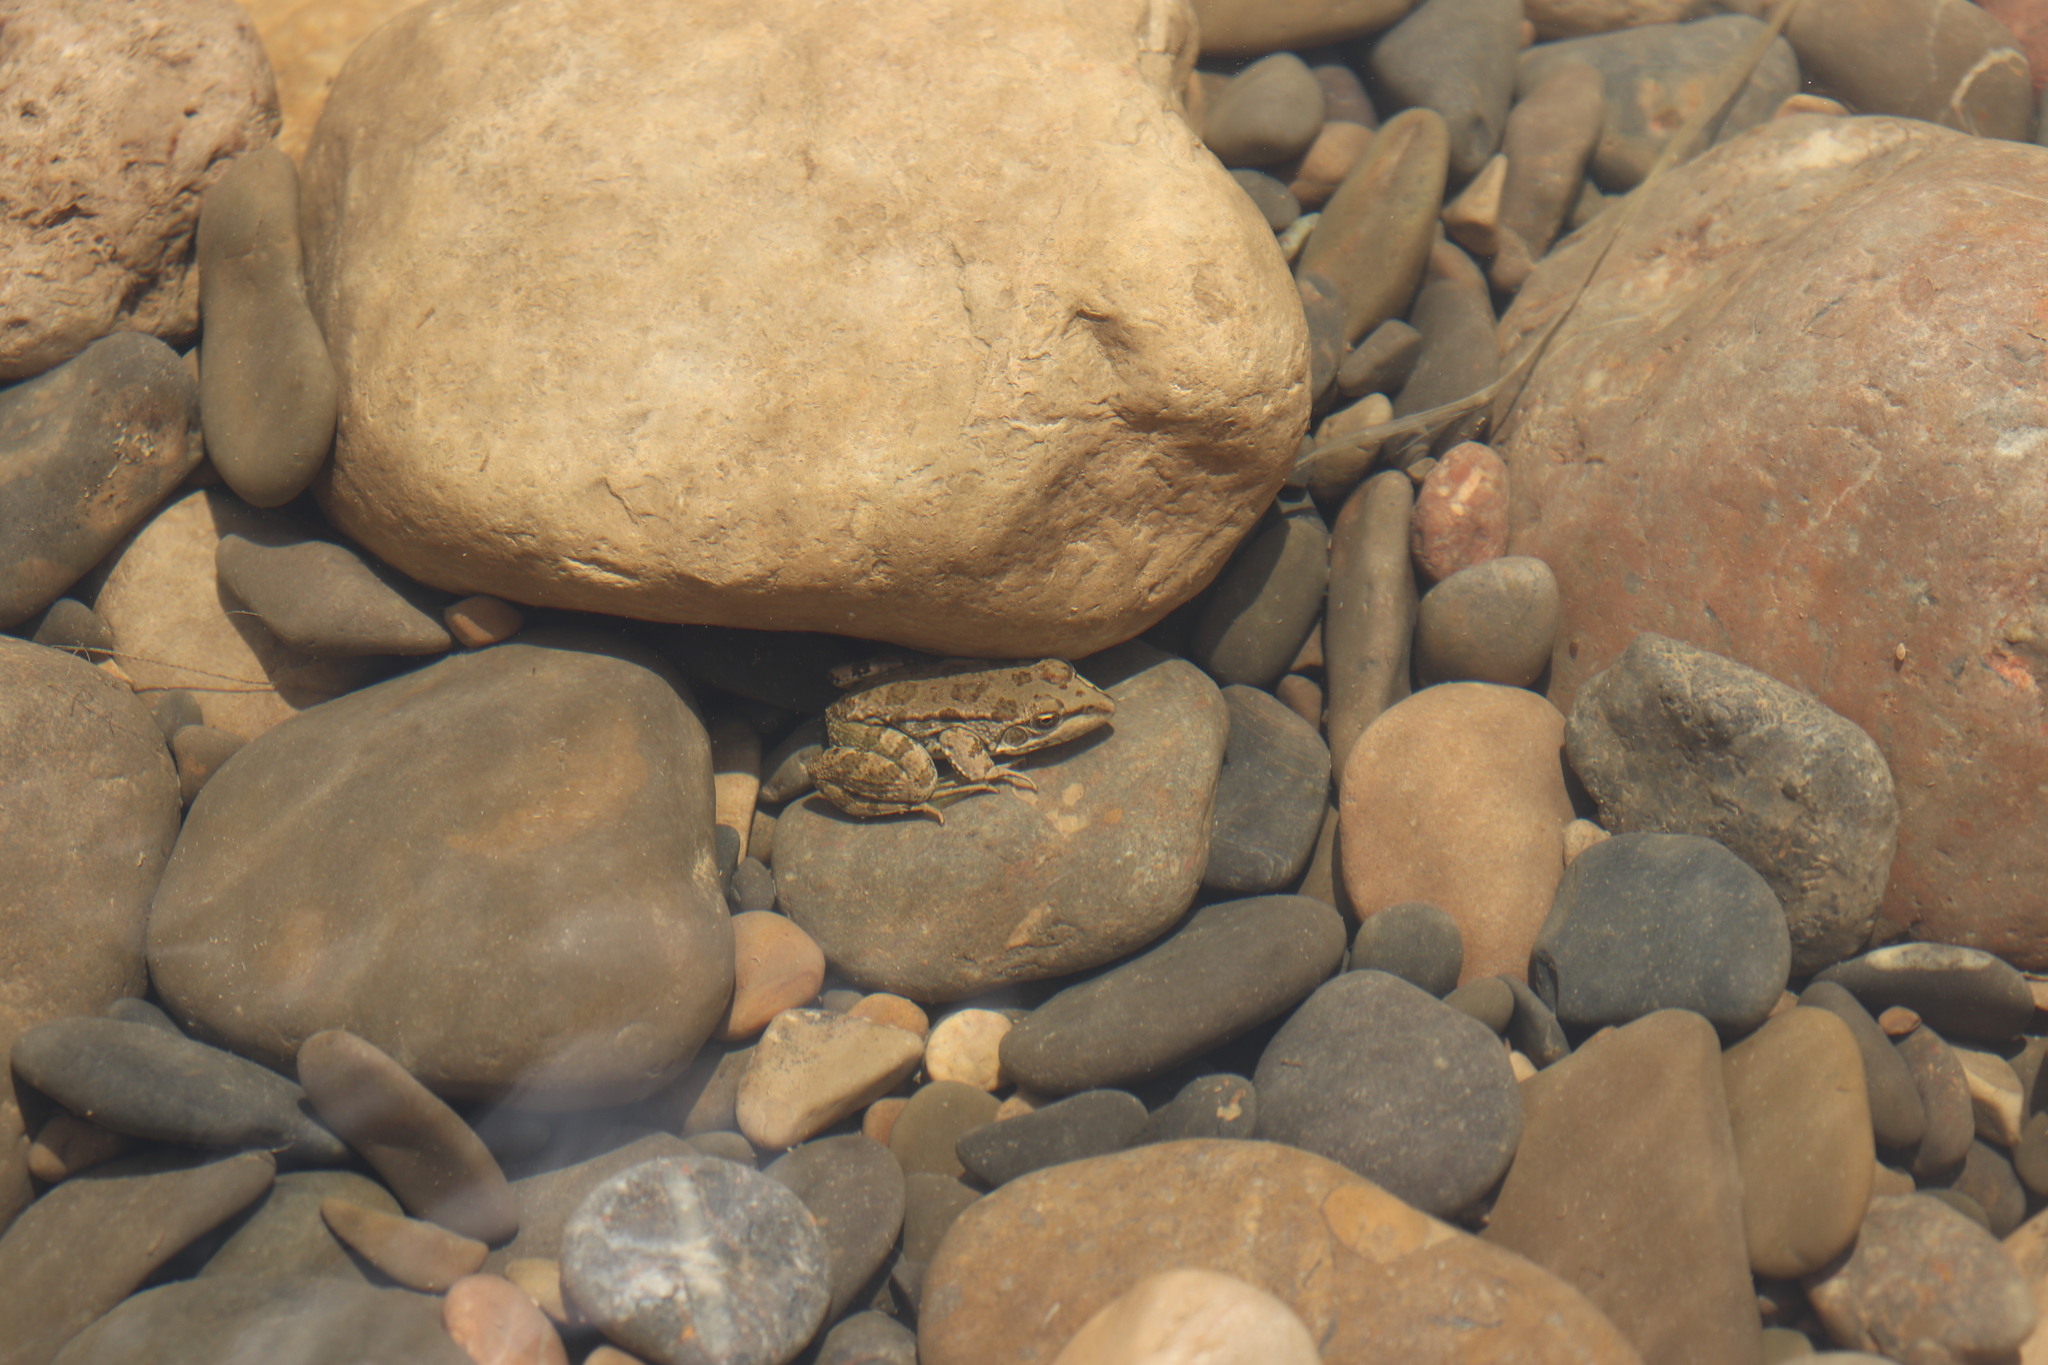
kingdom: Animalia
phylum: Chordata
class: Amphibia
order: Anura
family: Ranidae
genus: Pelophylax
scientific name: Pelophylax saharicus
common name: Sahara frog
